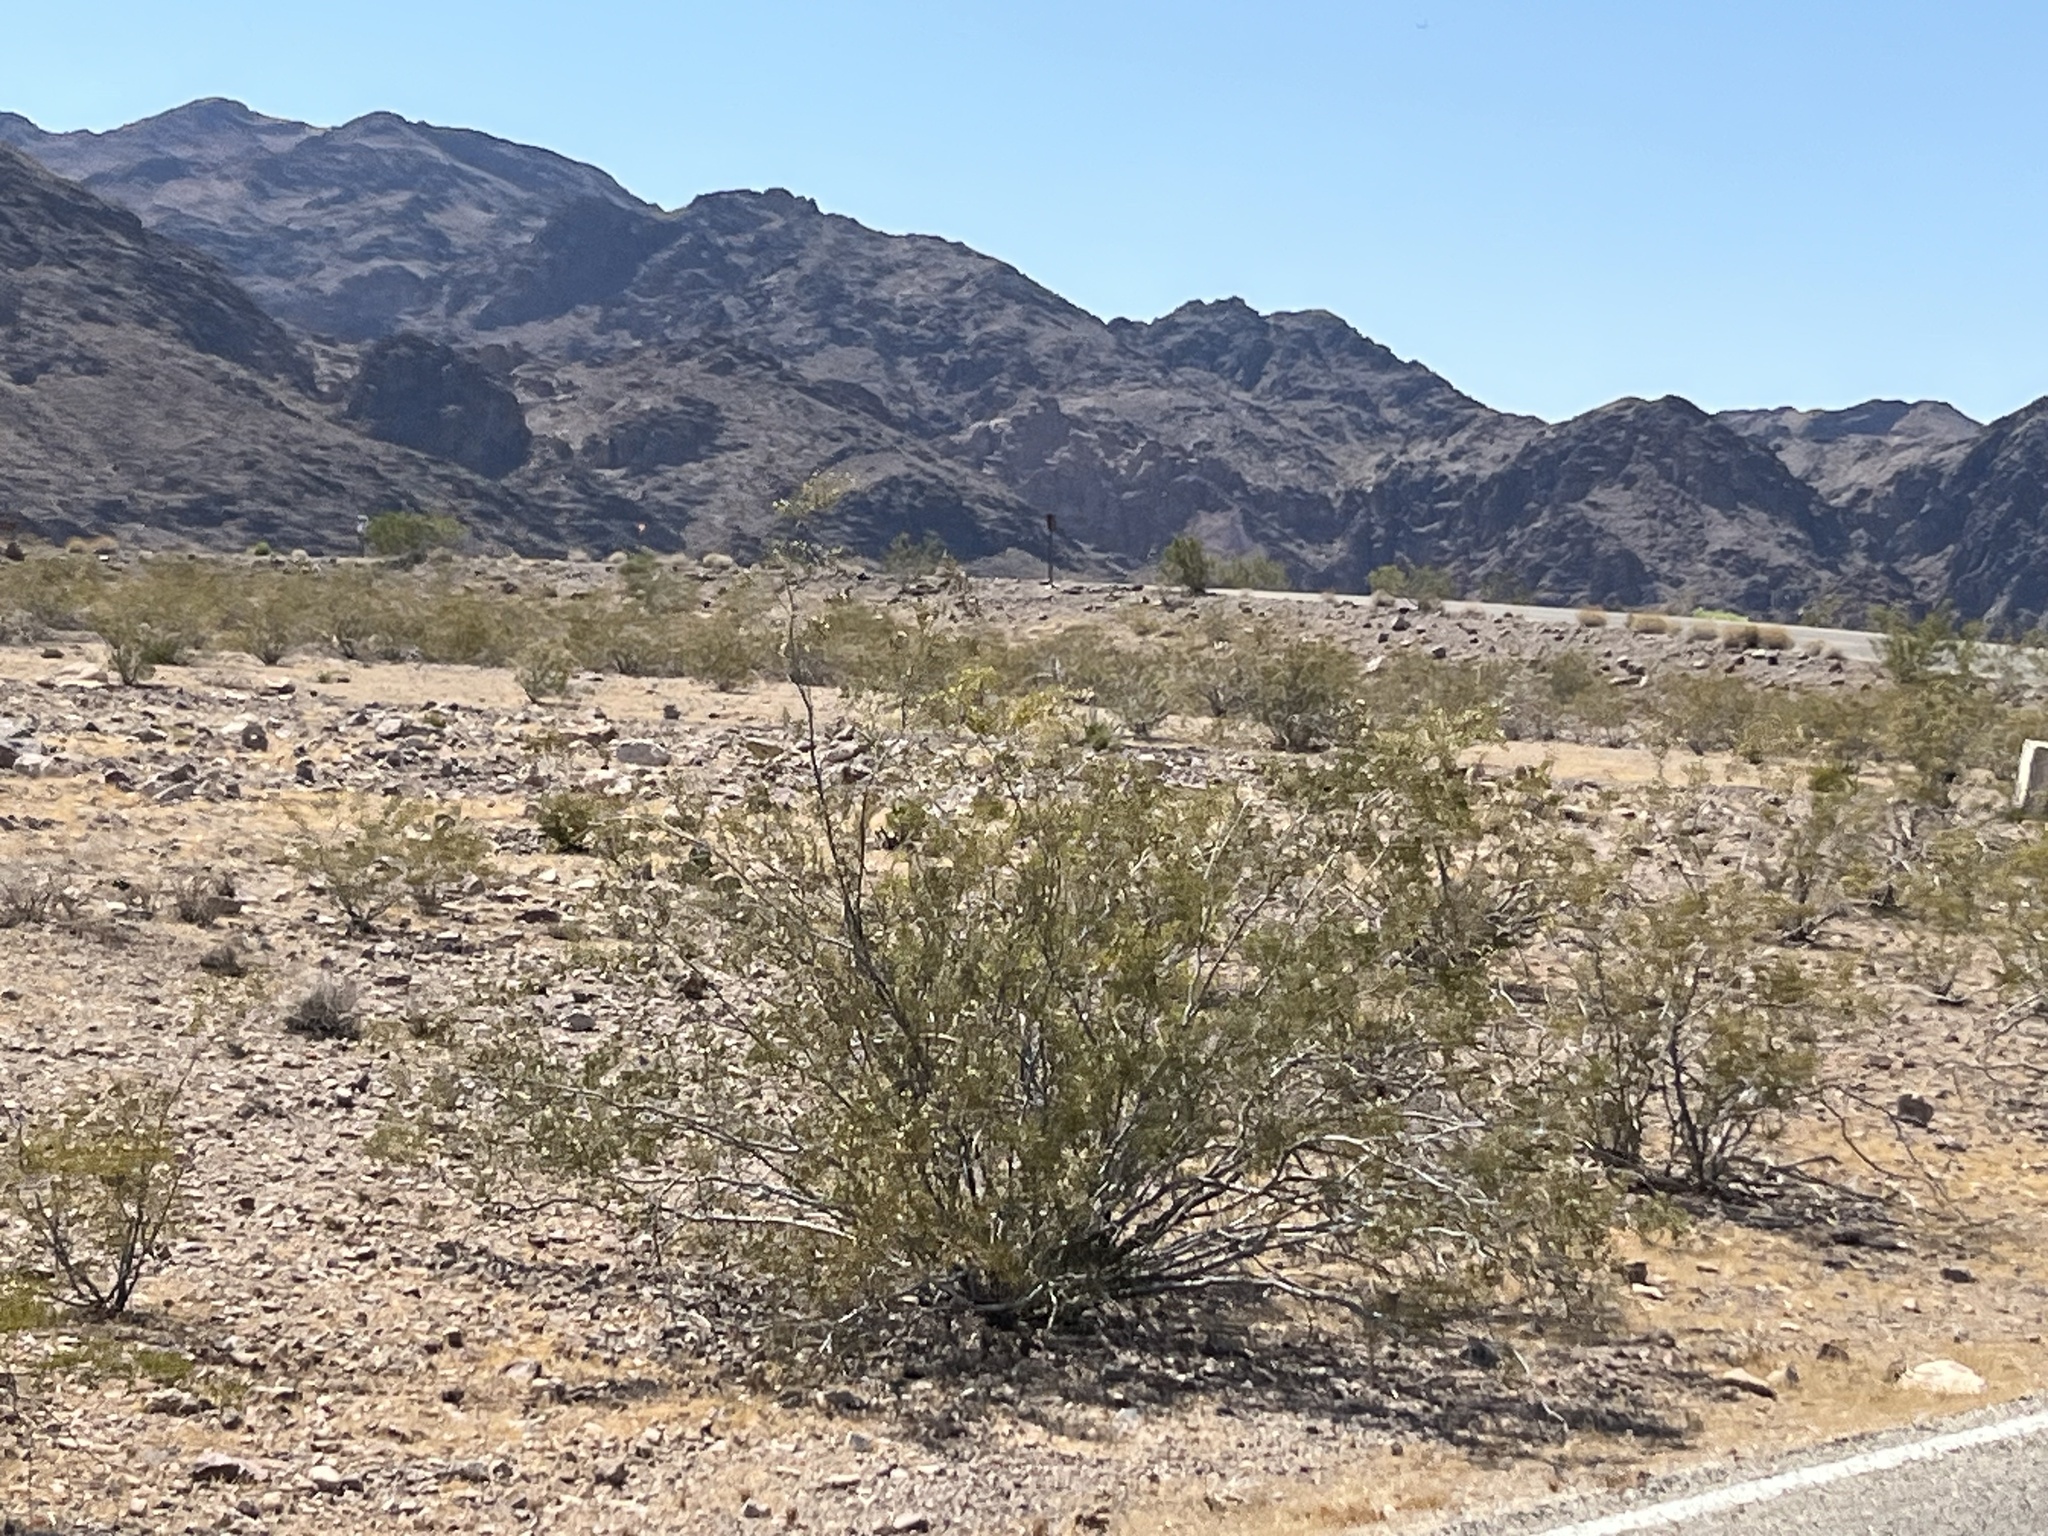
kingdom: Plantae
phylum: Tracheophyta
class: Magnoliopsida
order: Zygophyllales
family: Zygophyllaceae
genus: Larrea
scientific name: Larrea tridentata
